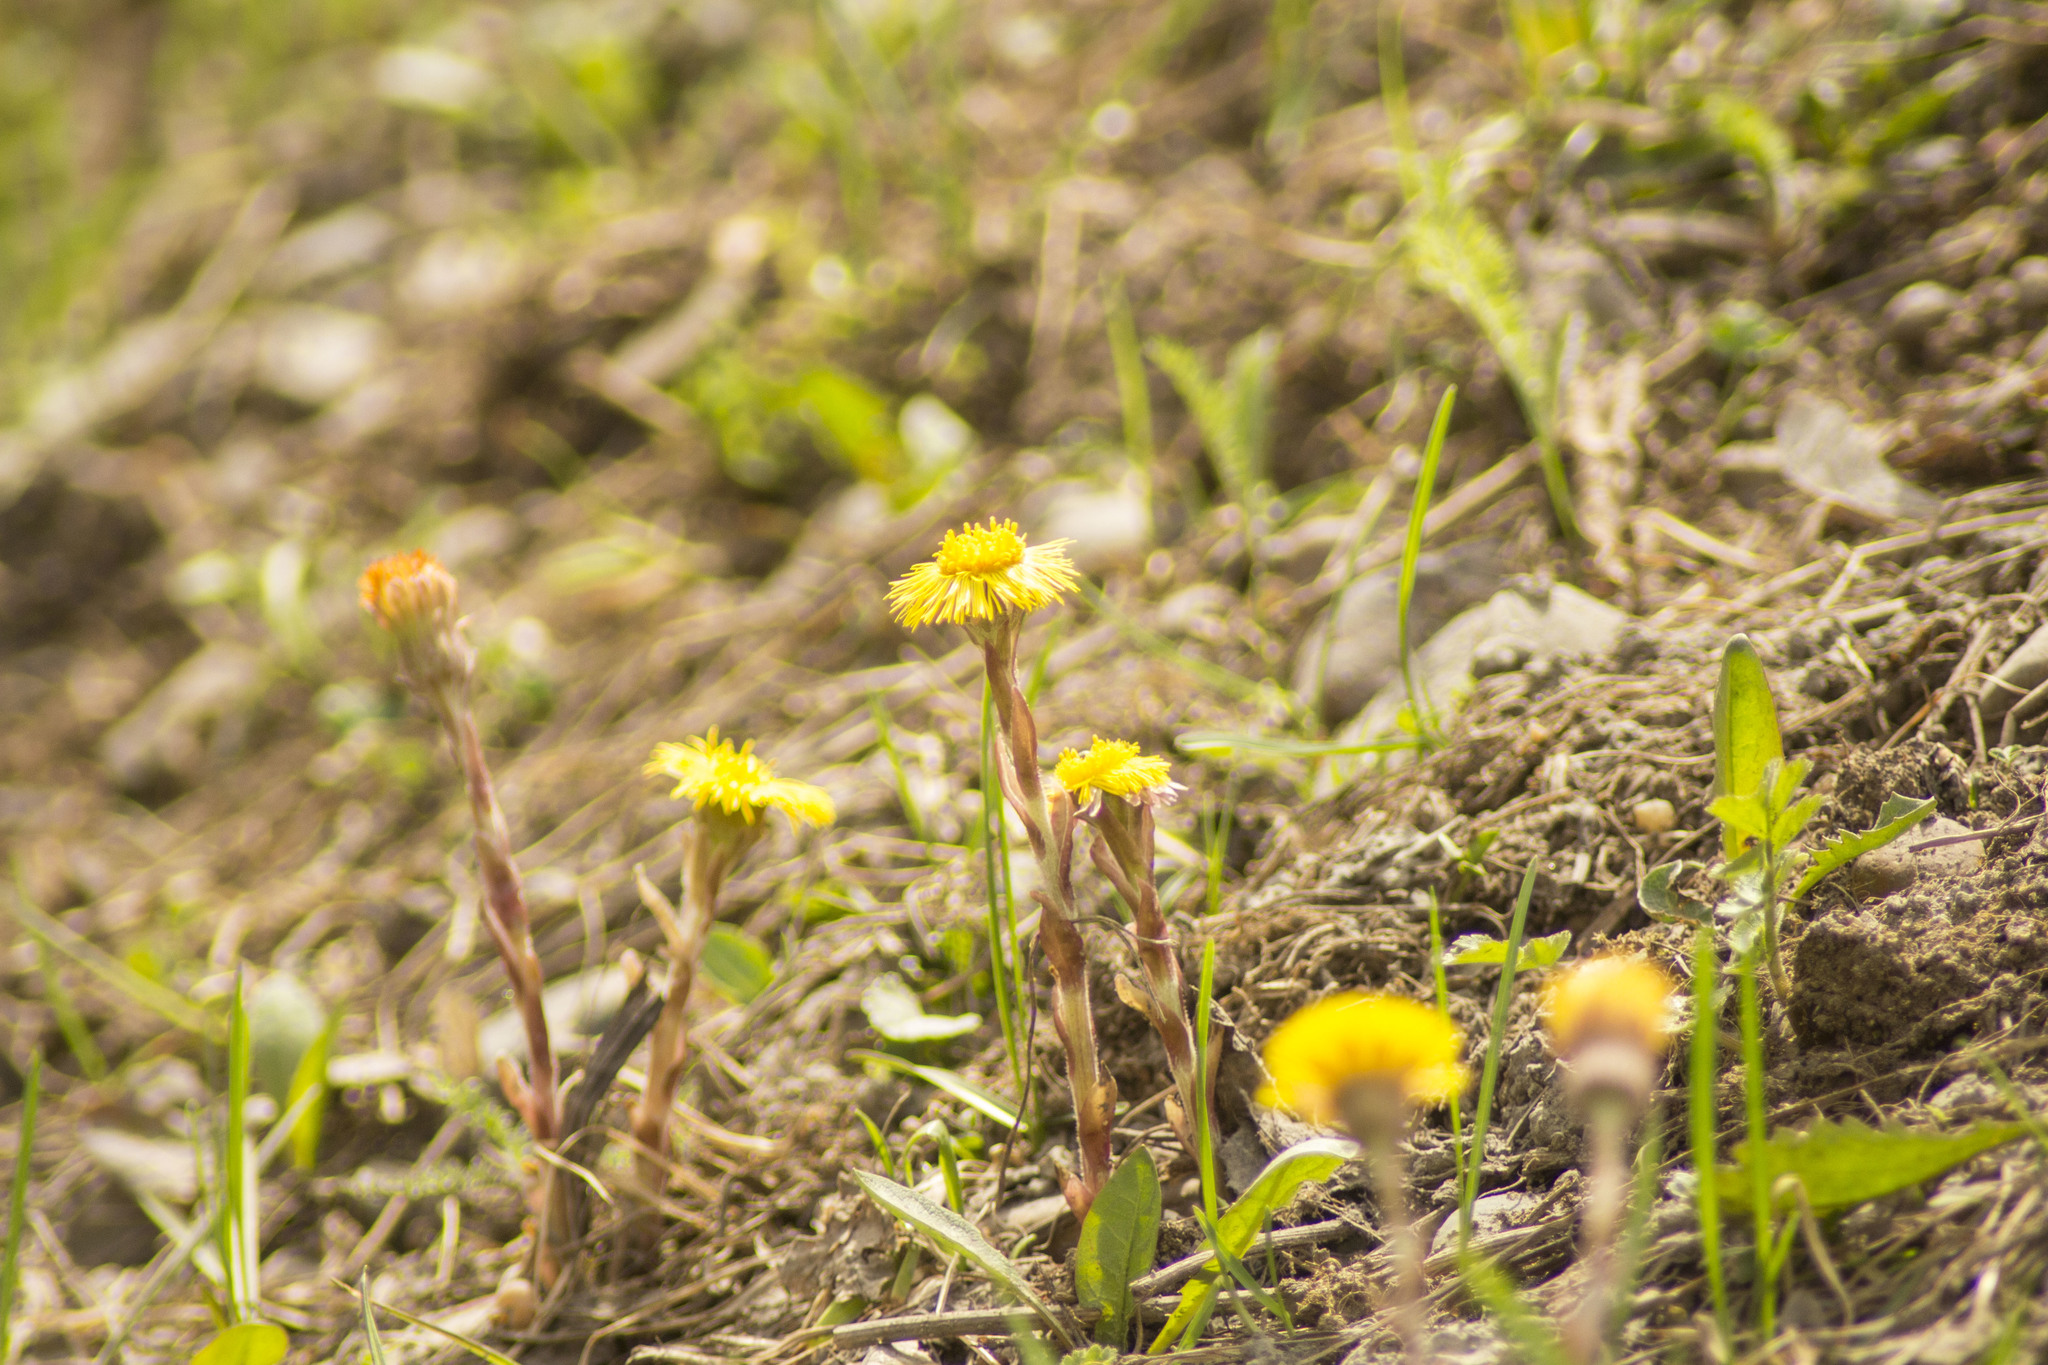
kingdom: Plantae
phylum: Tracheophyta
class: Magnoliopsida
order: Asterales
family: Asteraceae
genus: Tussilago
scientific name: Tussilago farfara
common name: Coltsfoot
